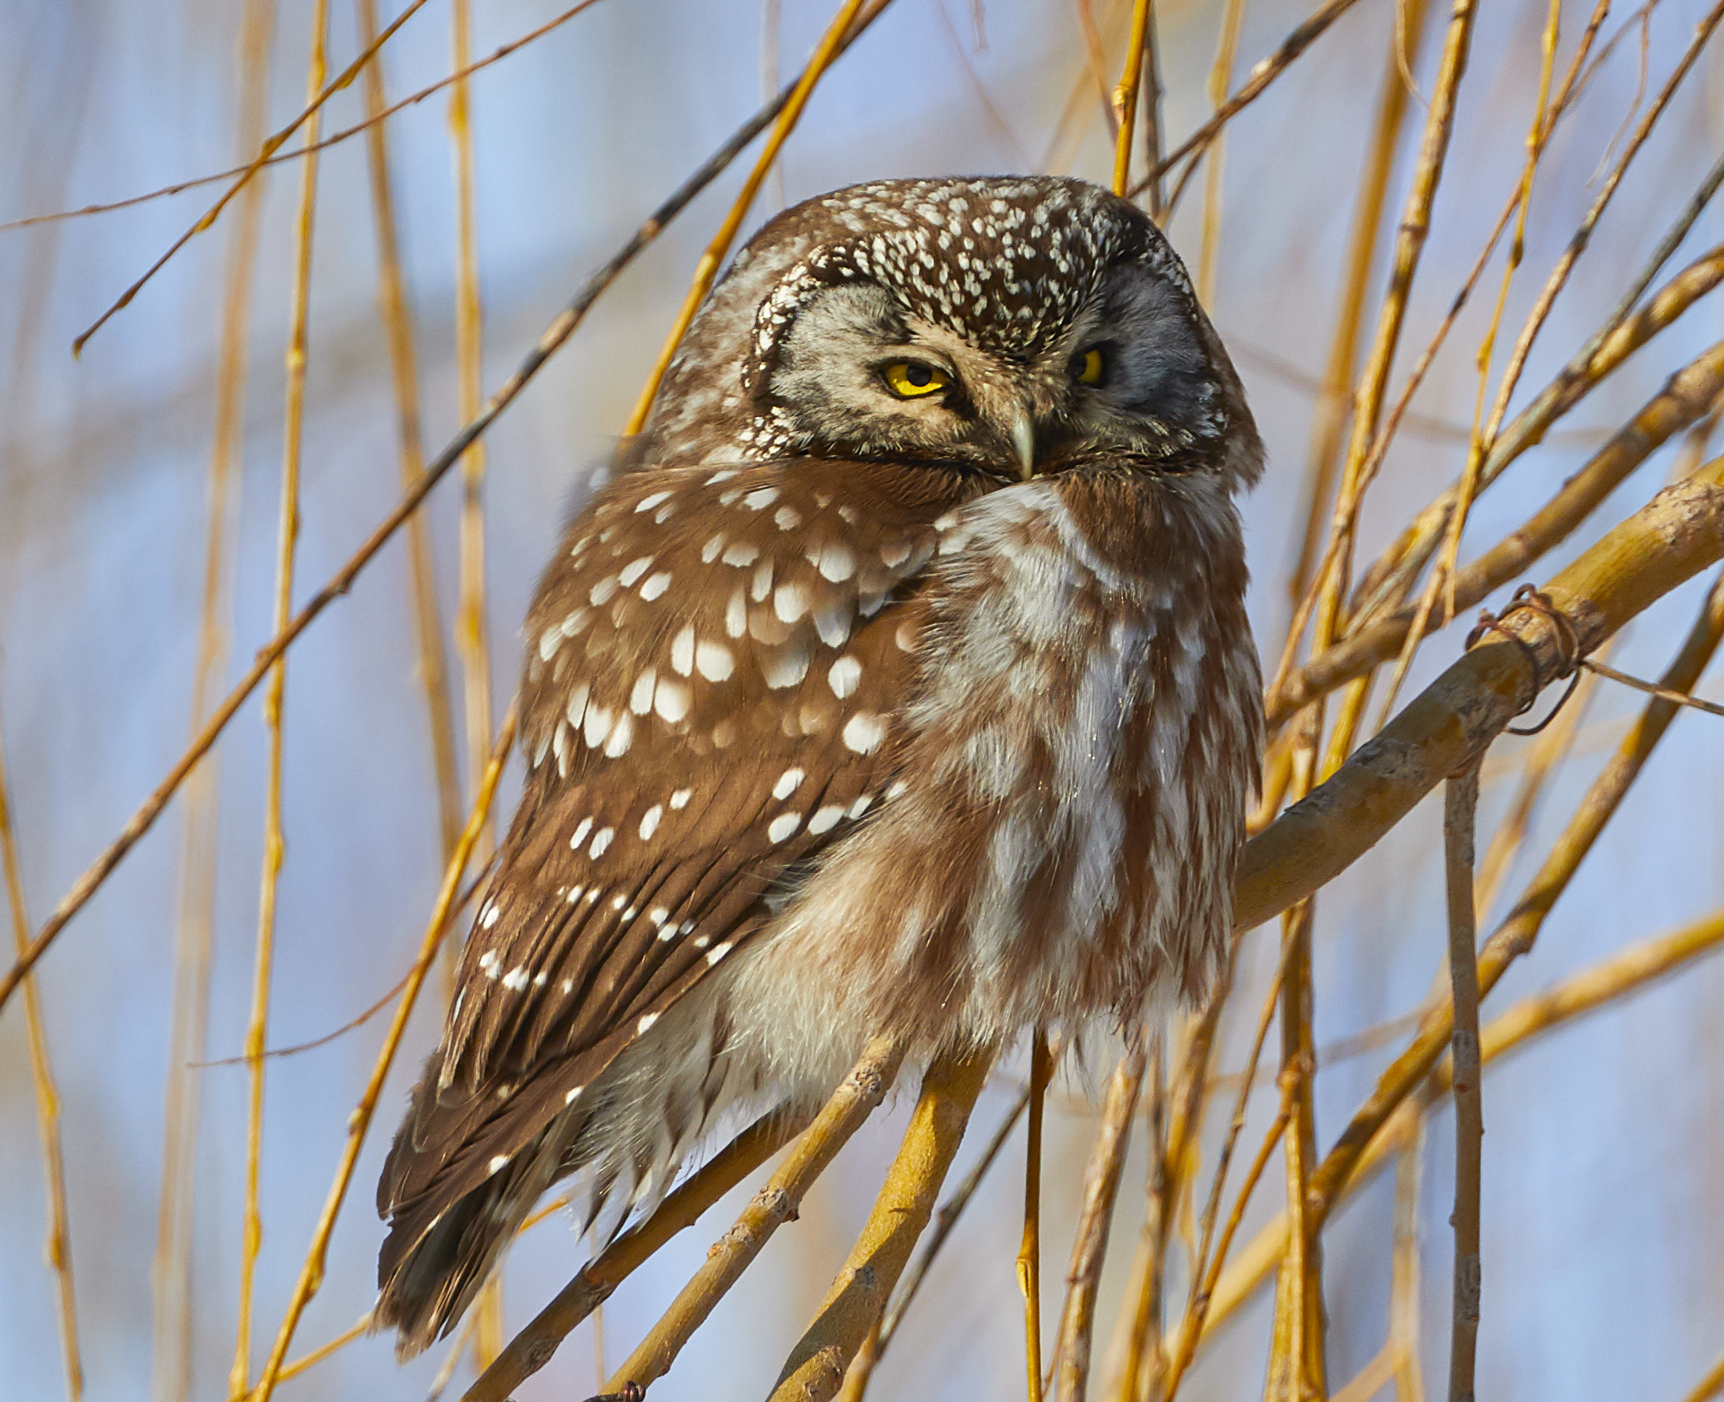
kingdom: Animalia
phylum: Chordata
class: Aves
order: Strigiformes
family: Strigidae
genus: Aegolius
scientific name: Aegolius funereus
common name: Boreal owl
